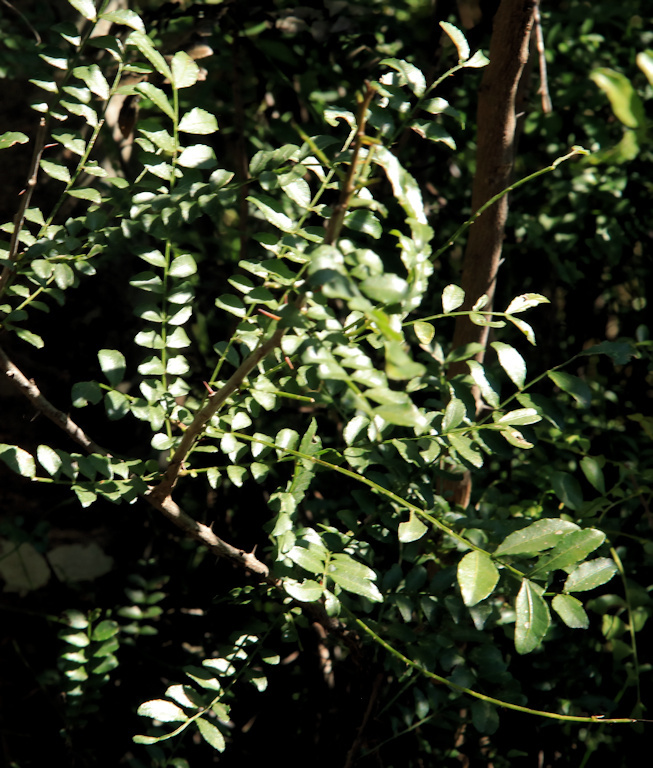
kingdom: Plantae
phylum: Tracheophyta
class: Magnoliopsida
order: Sapindales
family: Rutaceae
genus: Zanthoxylum
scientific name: Zanthoxylum capense
